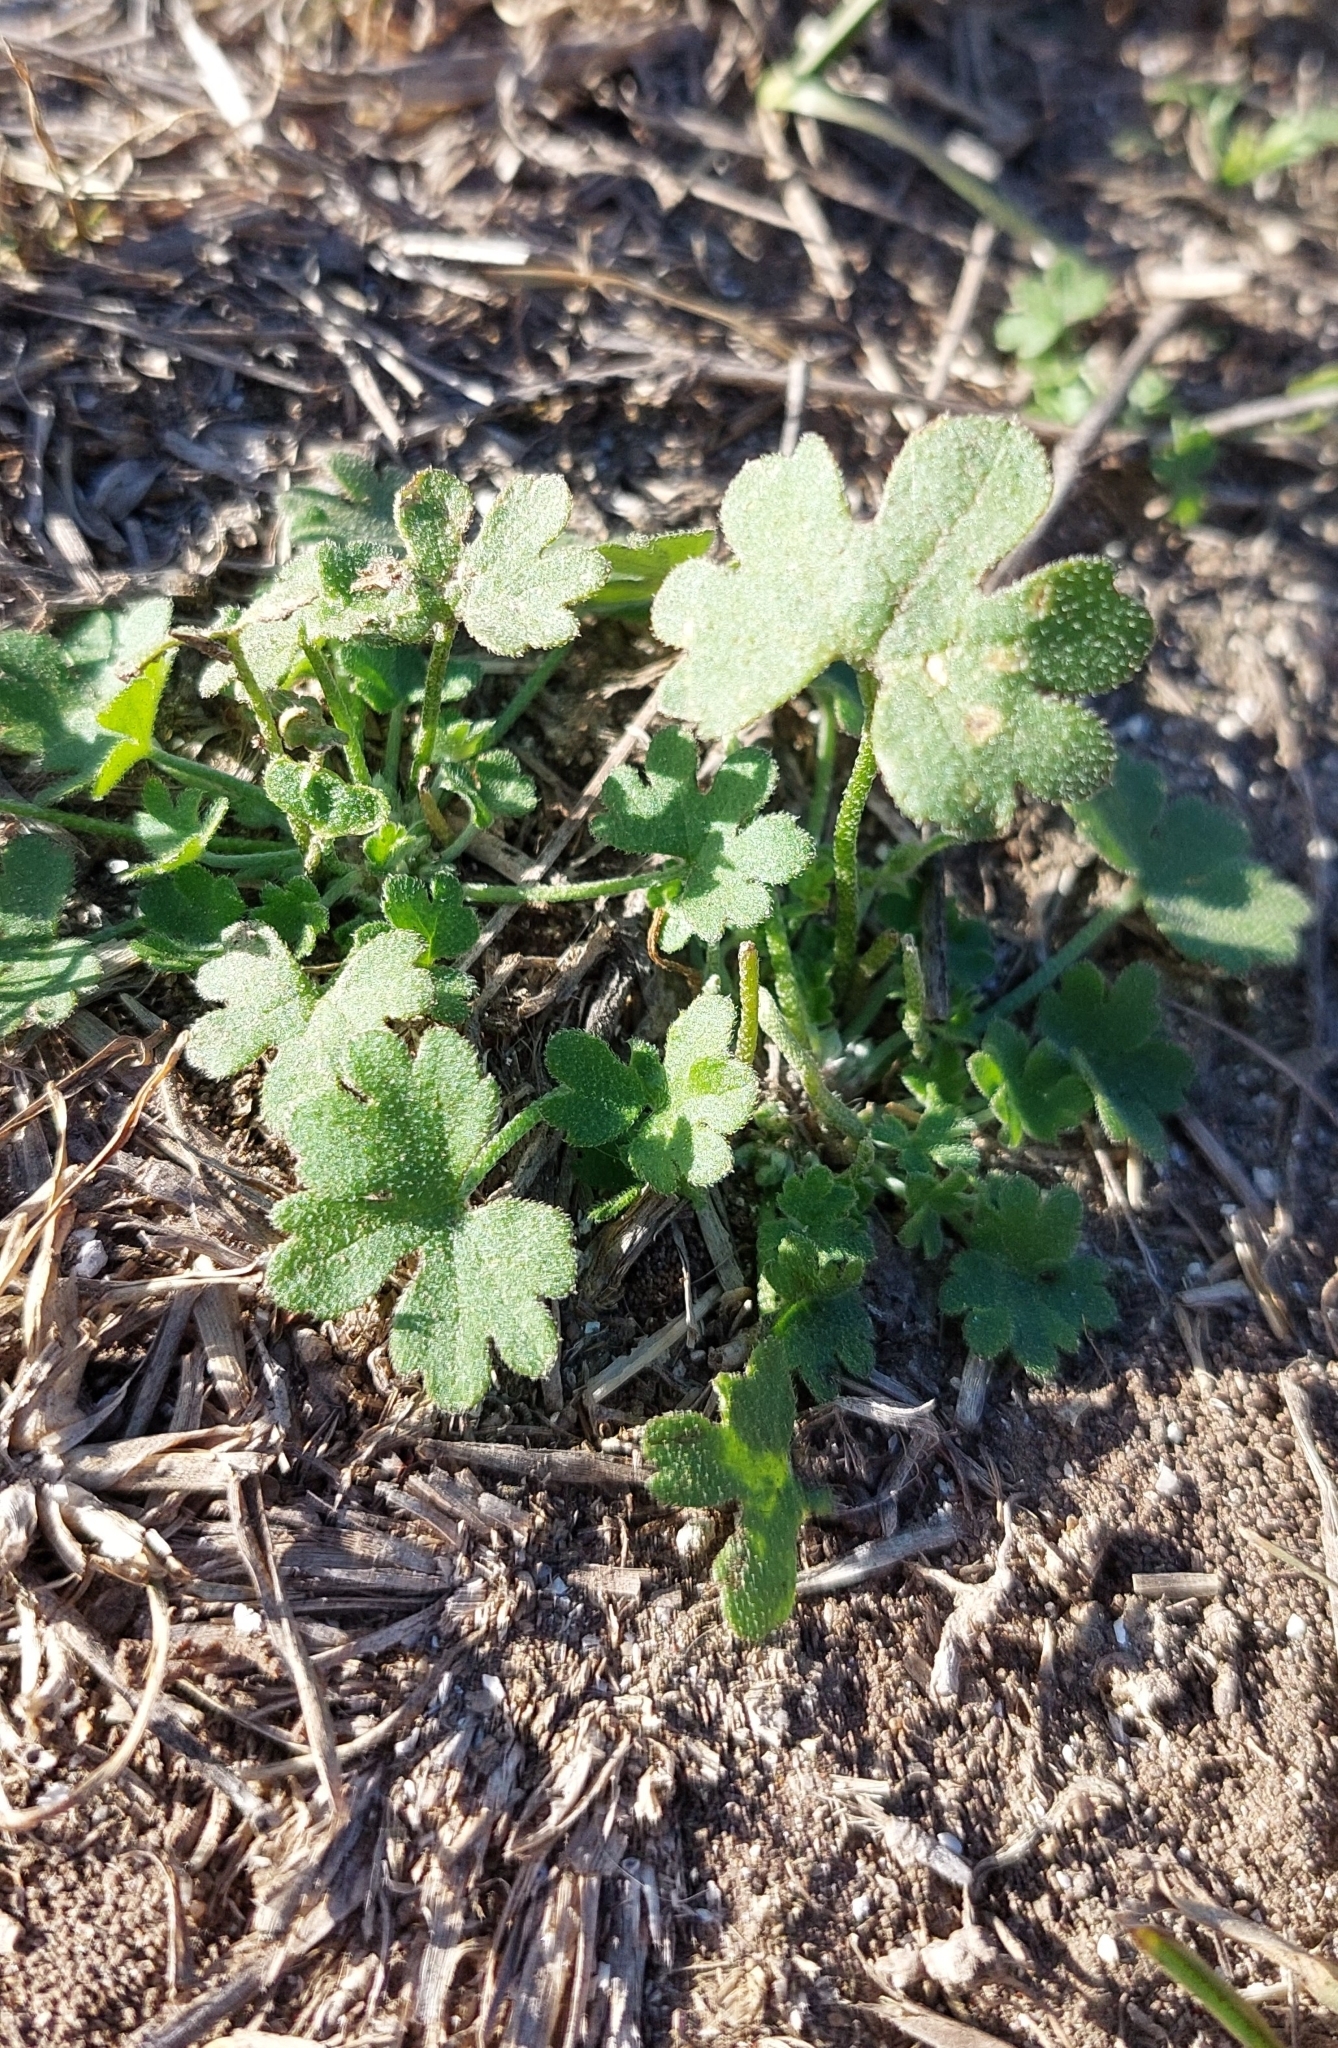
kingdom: Plantae
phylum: Tracheophyta
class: Magnoliopsida
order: Apiales
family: Apiaceae
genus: Bowlesia
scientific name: Bowlesia incana
